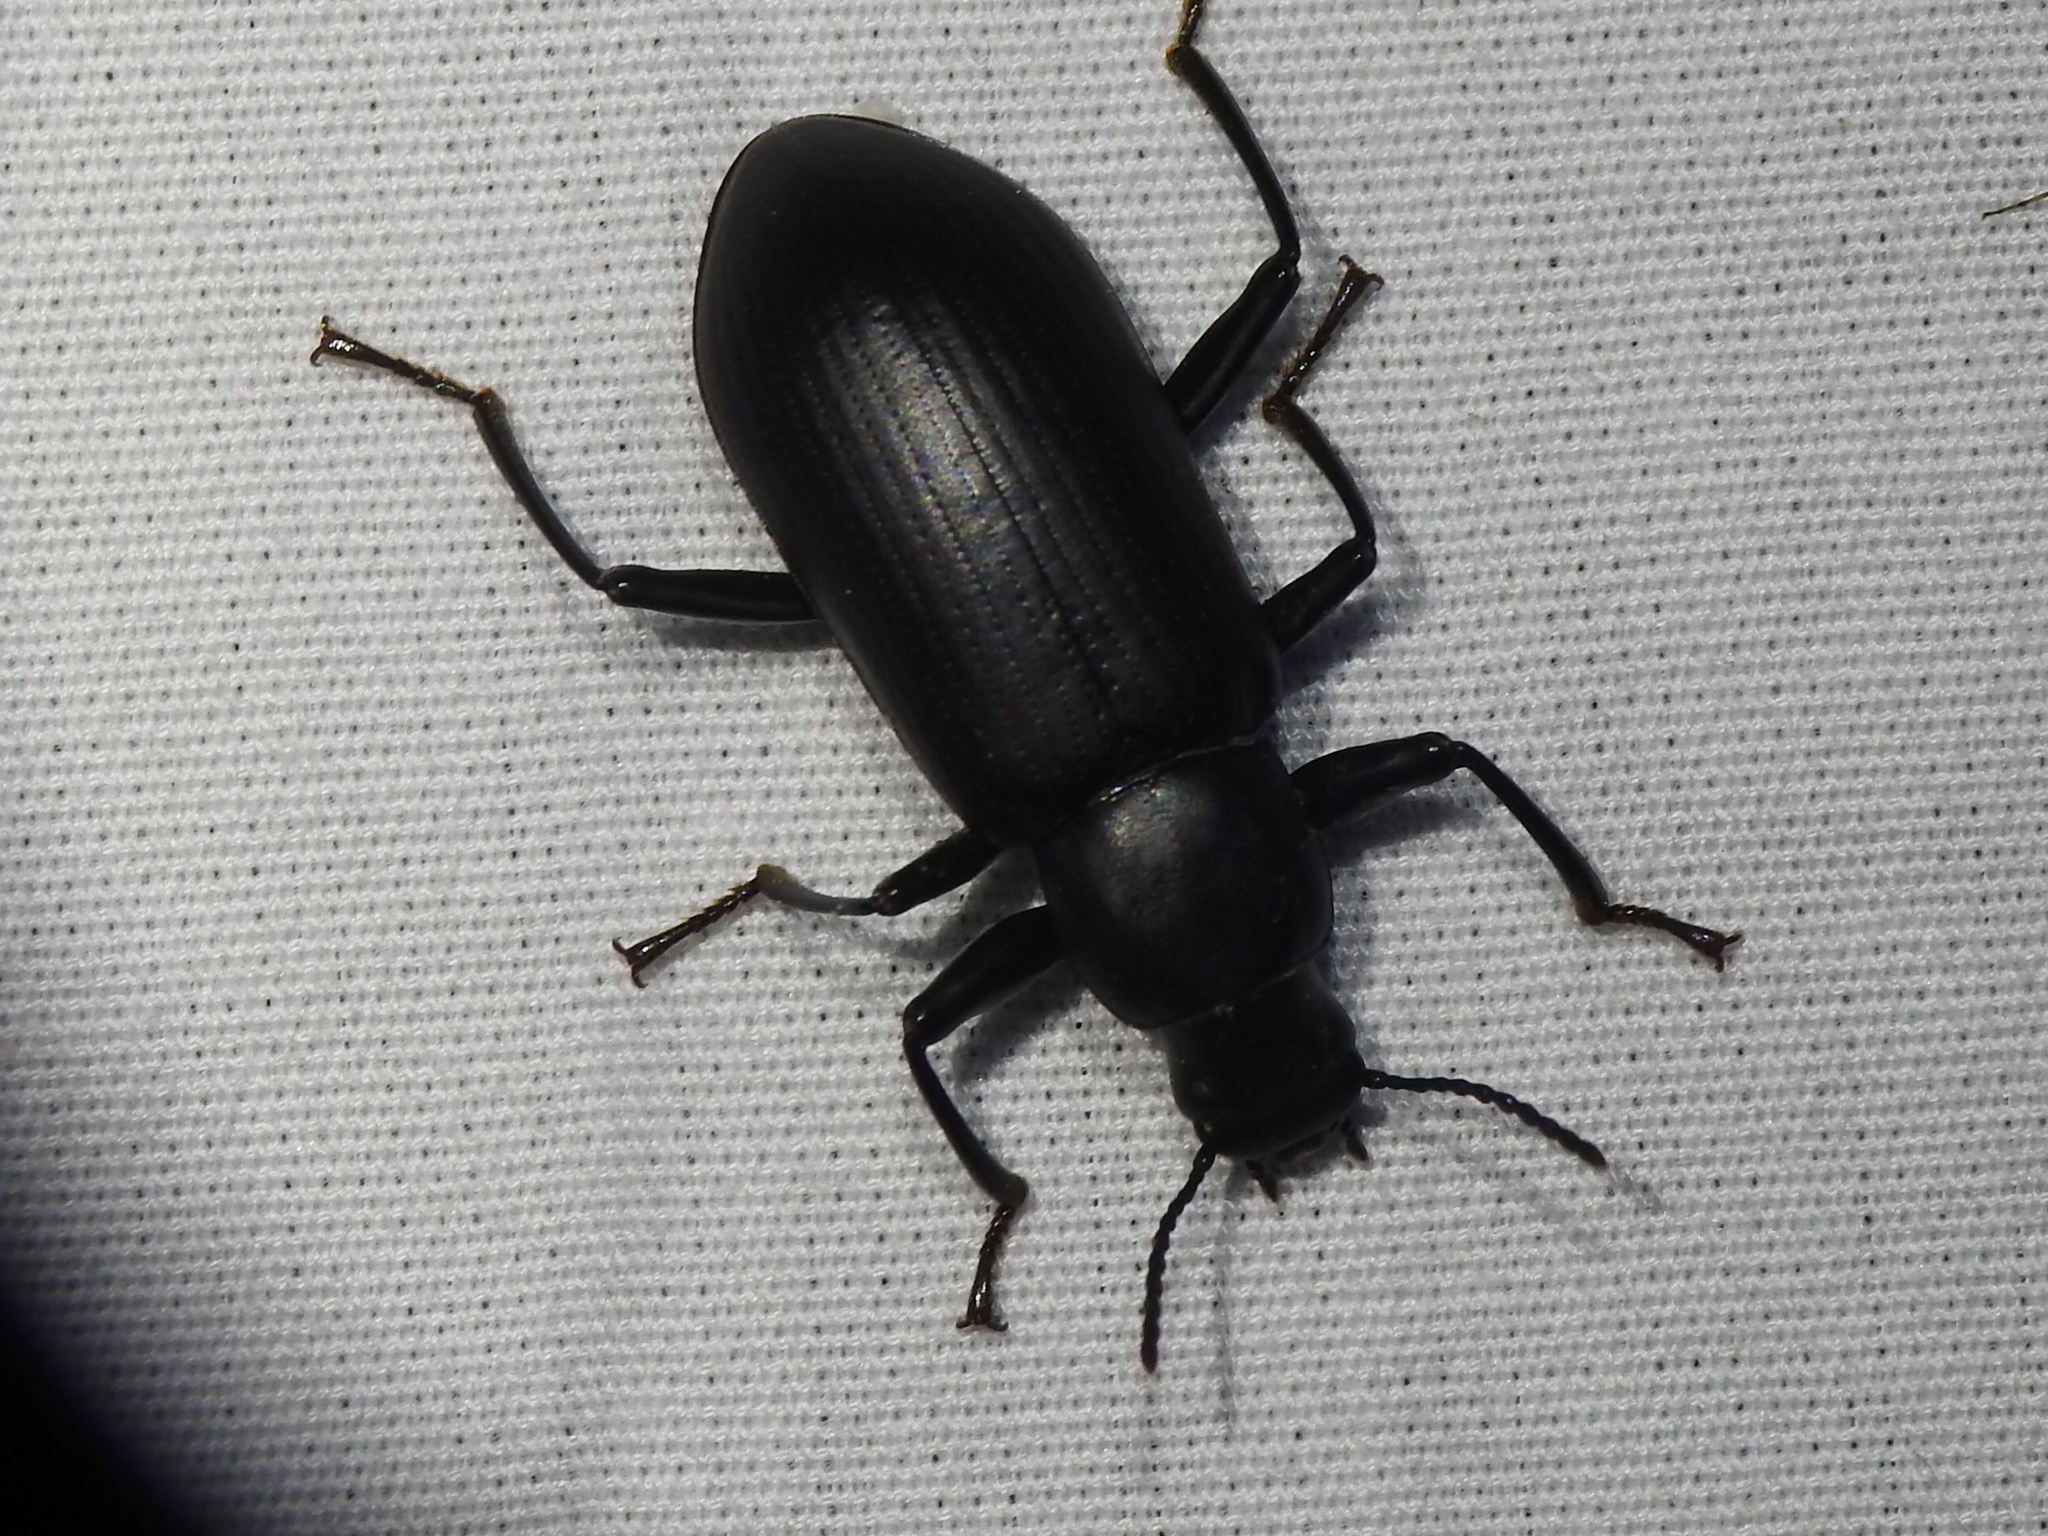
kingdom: Animalia
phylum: Arthropoda
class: Insecta
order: Coleoptera
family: Tenebrionidae
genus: Alobates
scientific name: Alobates
